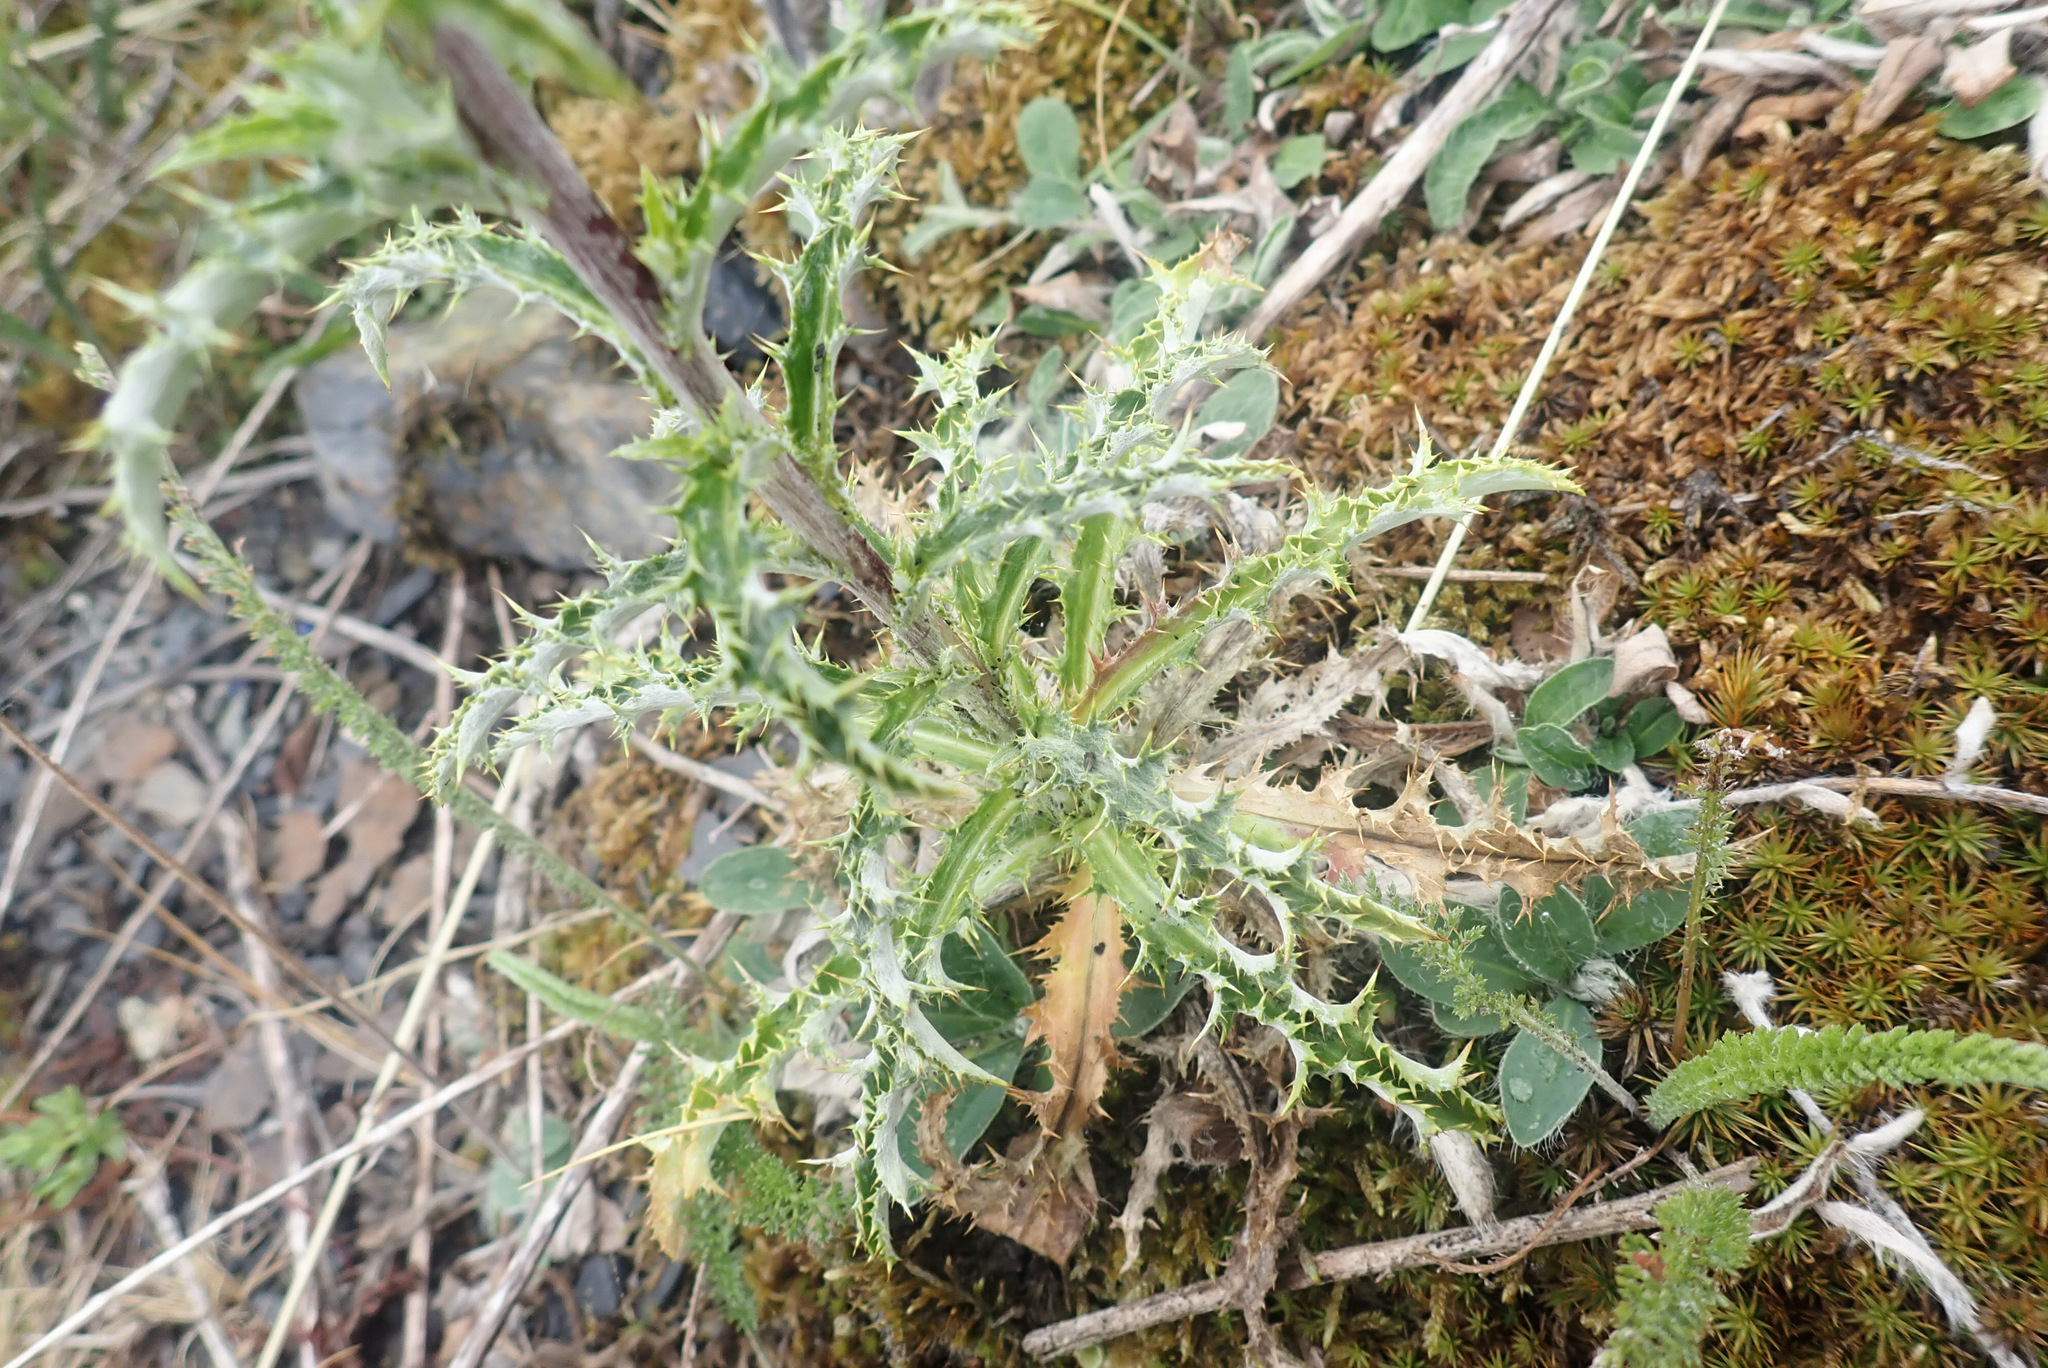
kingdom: Plantae
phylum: Tracheophyta
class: Magnoliopsida
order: Asterales
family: Asteraceae
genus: Carlina
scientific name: Carlina vulgaris
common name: Carline thistle
